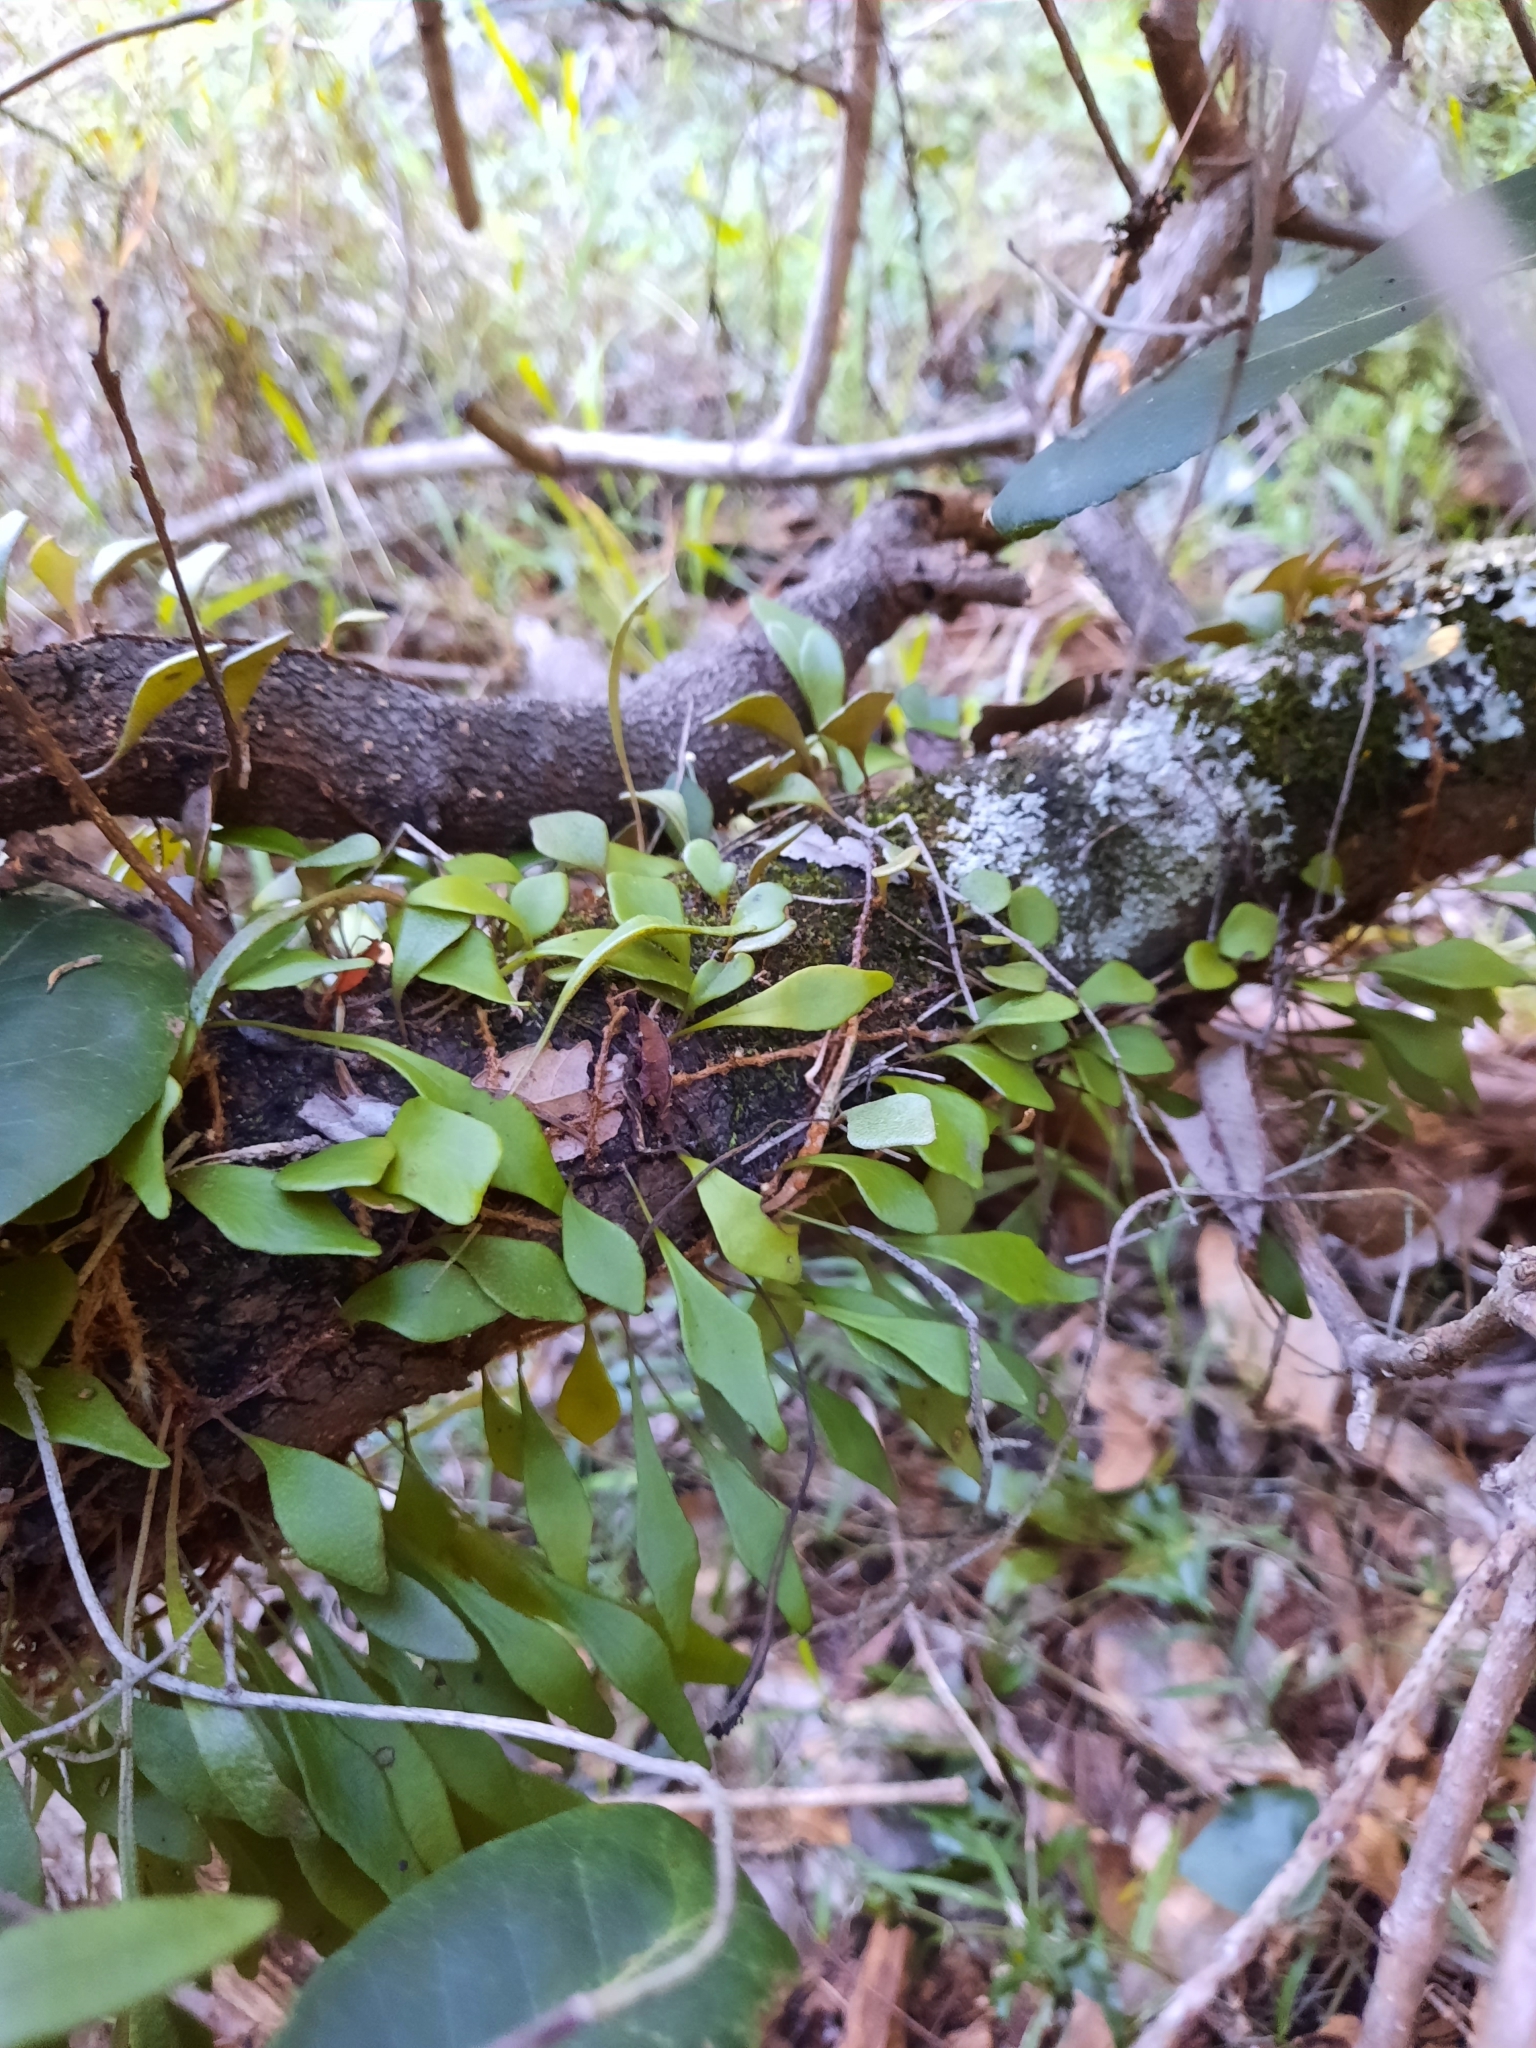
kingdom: Plantae
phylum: Tracheophyta
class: Polypodiopsida
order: Polypodiales
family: Polypodiaceae
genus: Pyrrosia
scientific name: Pyrrosia rupestris
